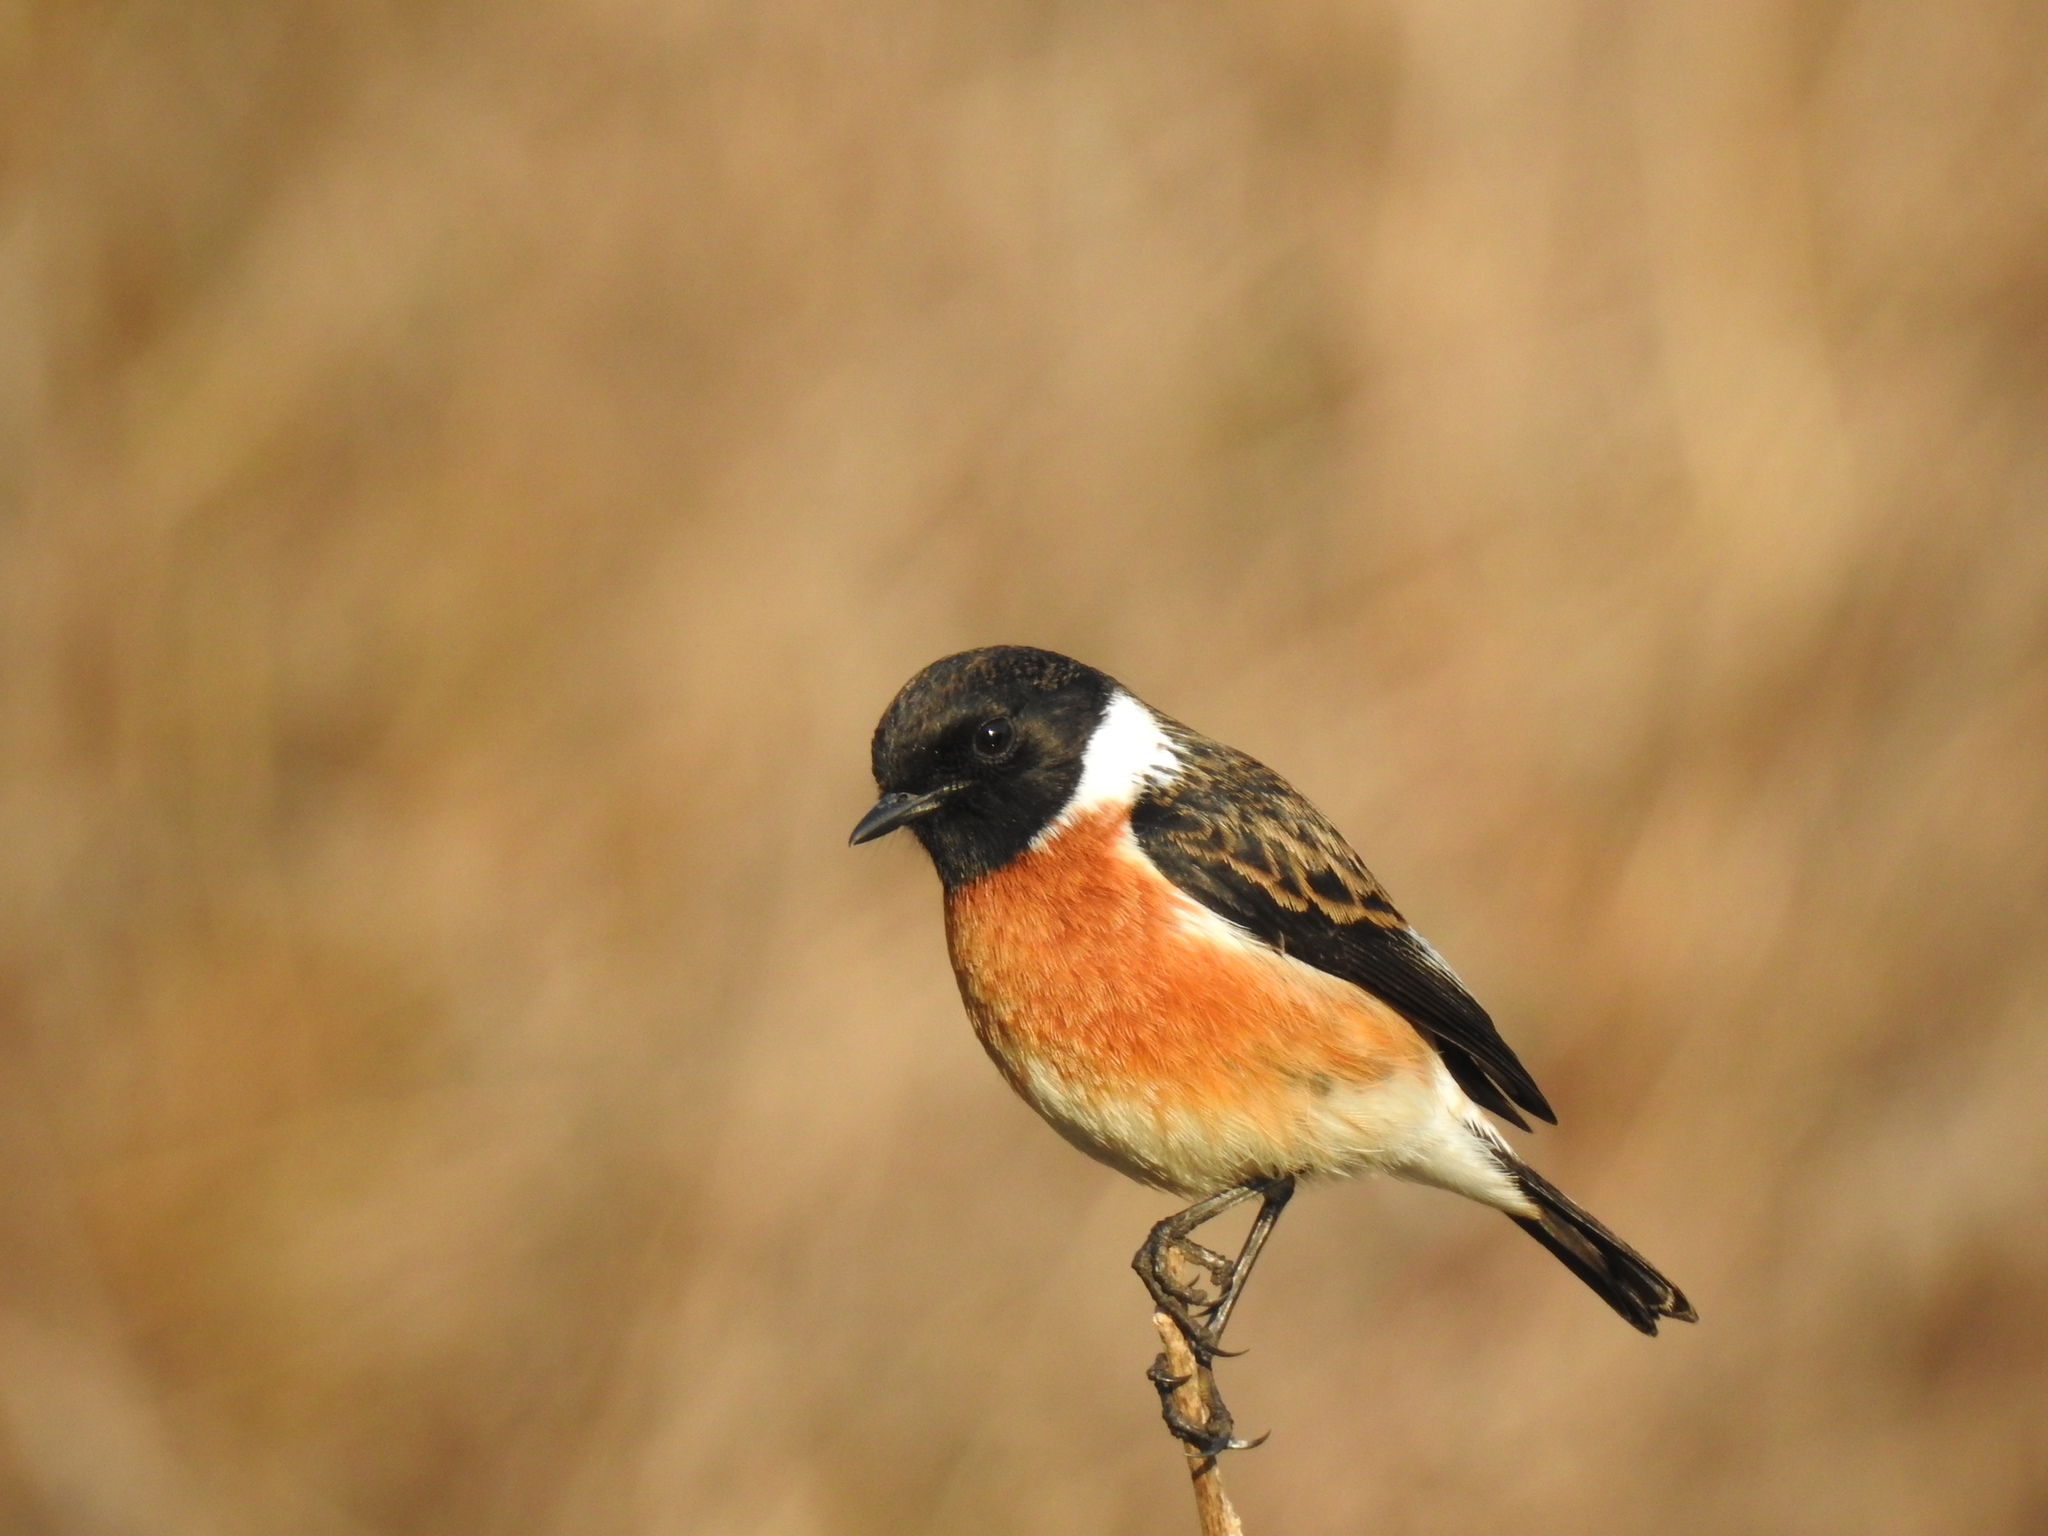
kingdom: Animalia
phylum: Chordata
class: Aves
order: Passeriformes
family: Muscicapidae
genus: Saxicola
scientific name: Saxicola torquatus
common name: African stonechat
